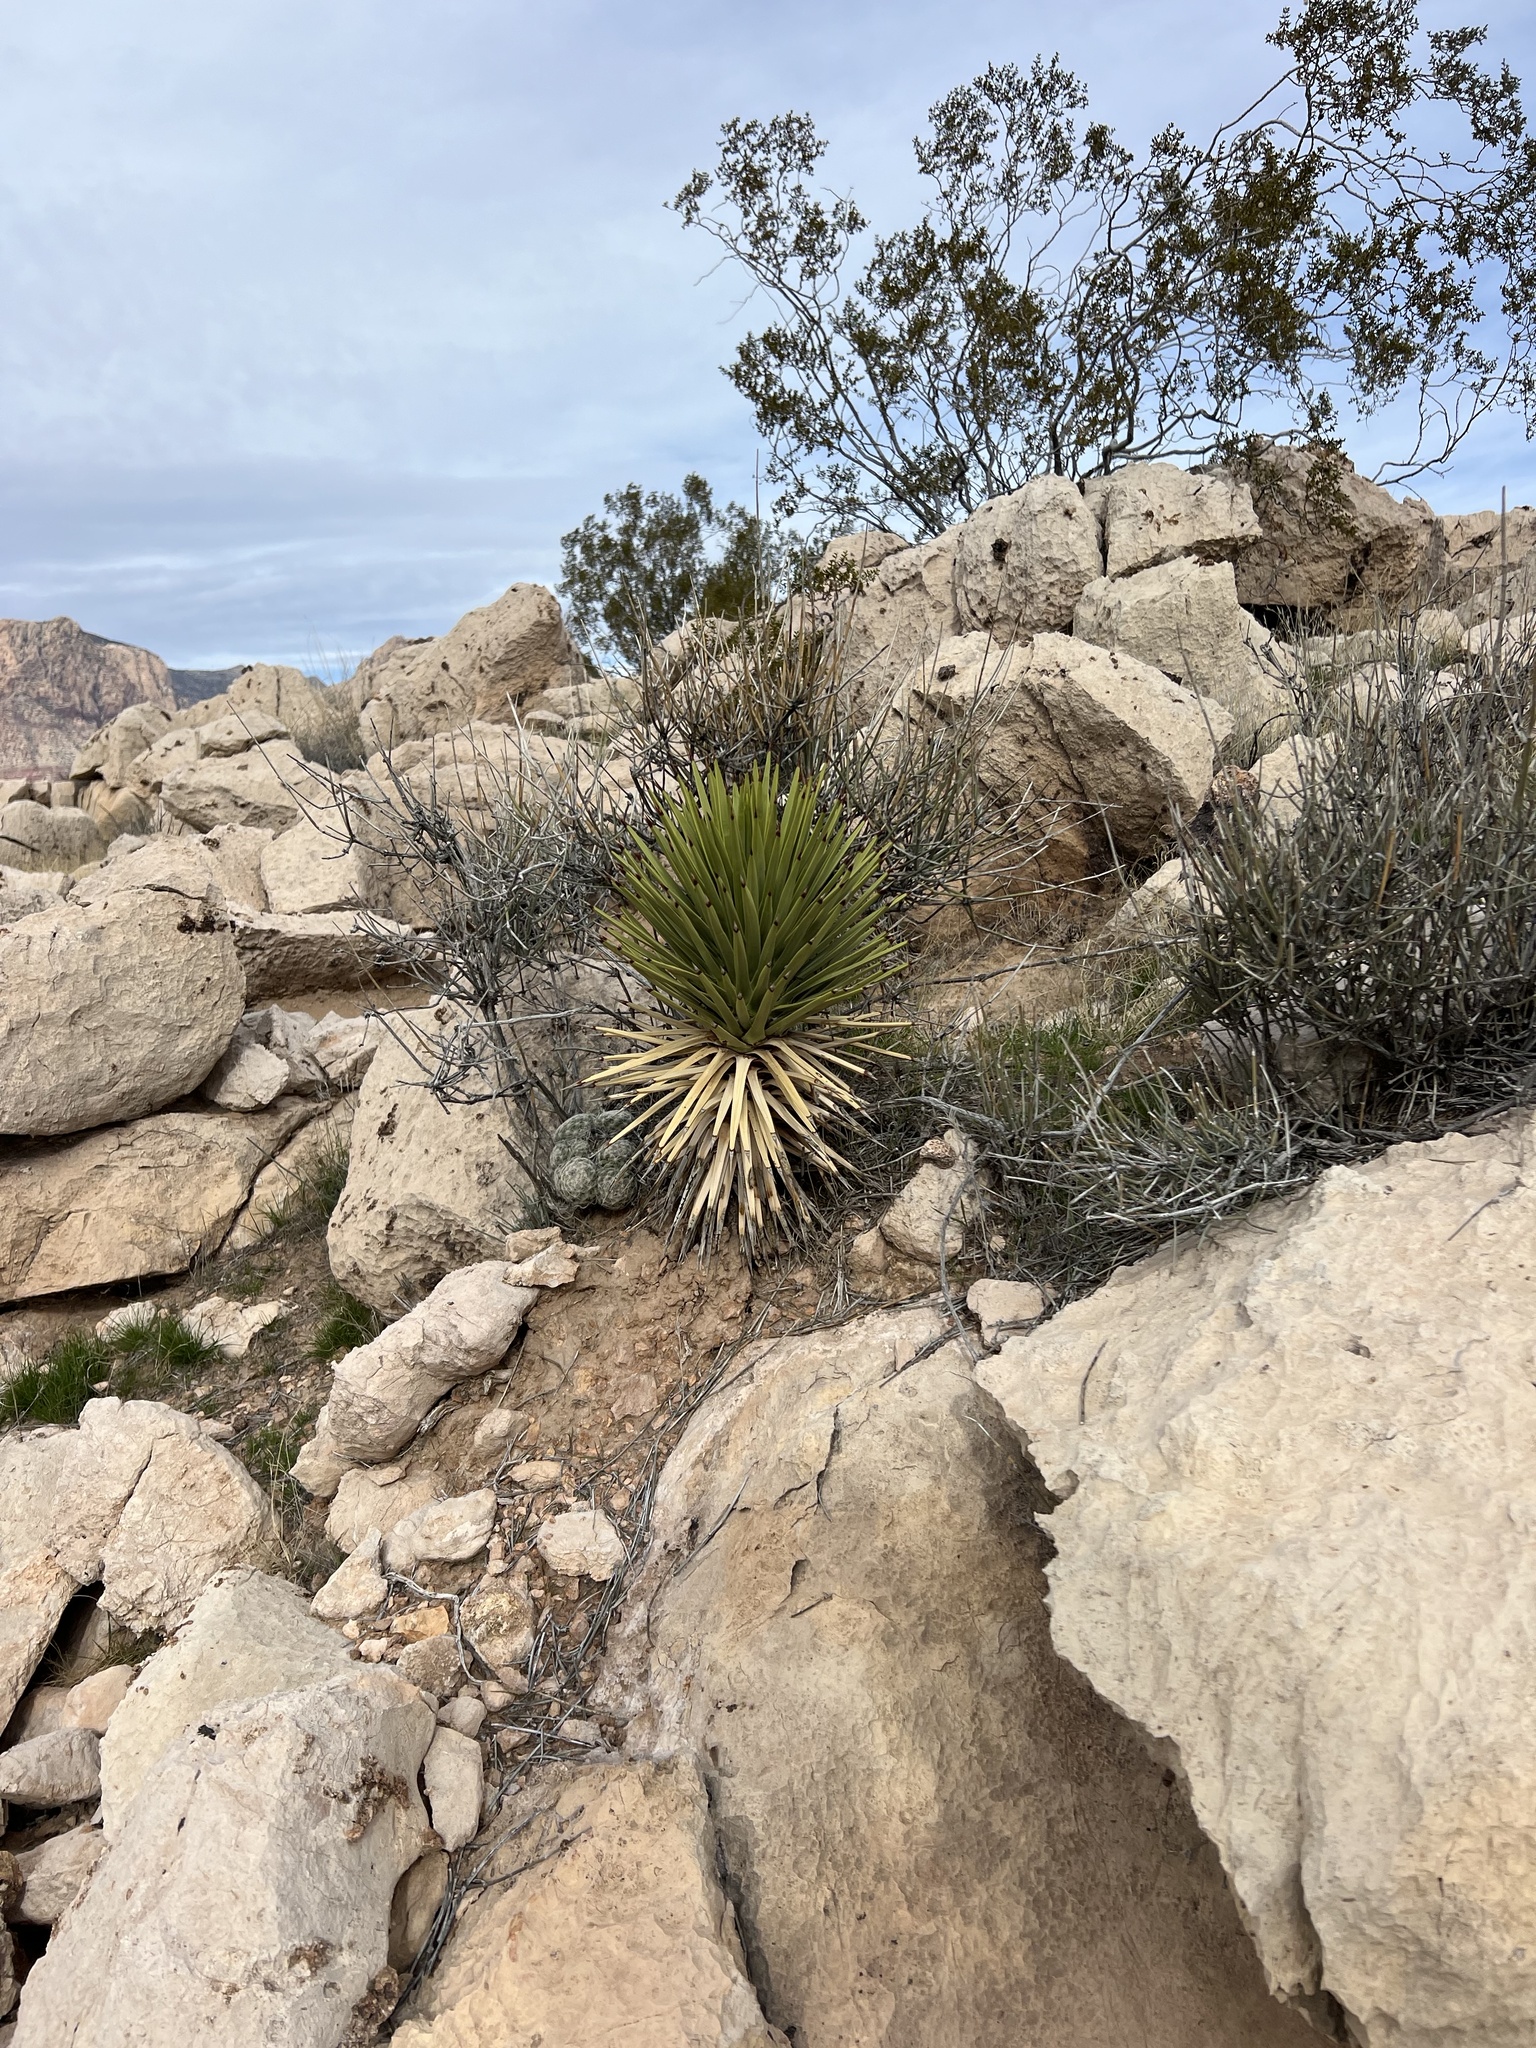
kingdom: Plantae
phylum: Tracheophyta
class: Liliopsida
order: Asparagales
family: Asparagaceae
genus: Yucca
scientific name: Yucca brevifolia
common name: Joshua tree
